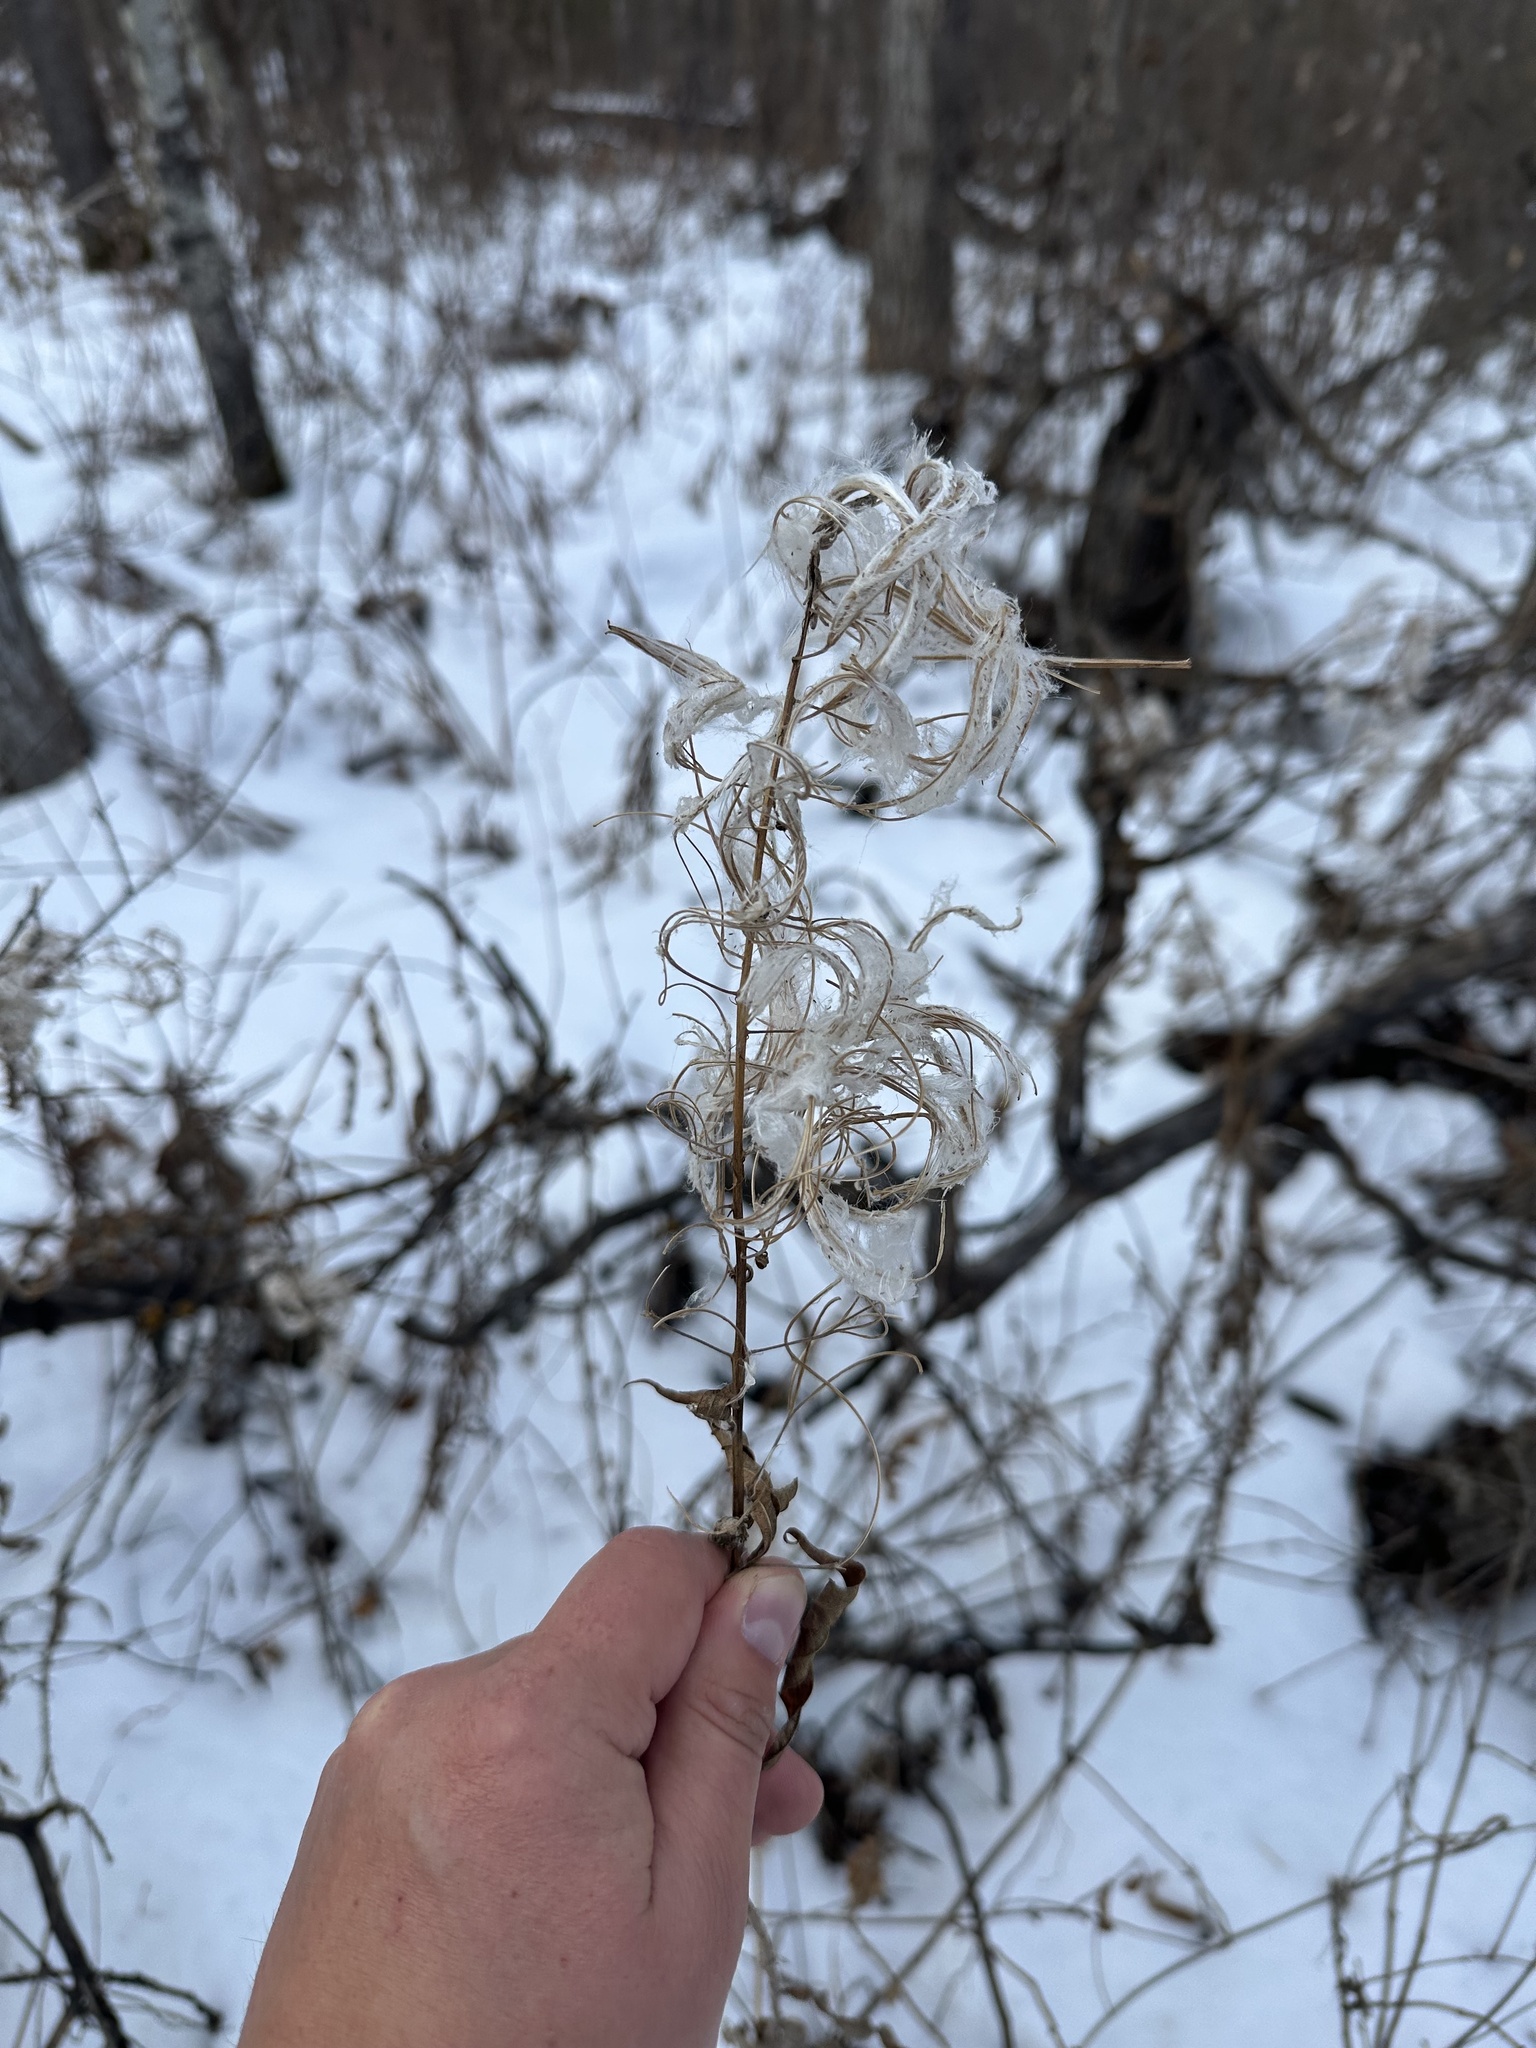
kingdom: Plantae
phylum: Tracheophyta
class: Magnoliopsida
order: Myrtales
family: Onagraceae
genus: Chamaenerion
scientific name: Chamaenerion angustifolium
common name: Fireweed
